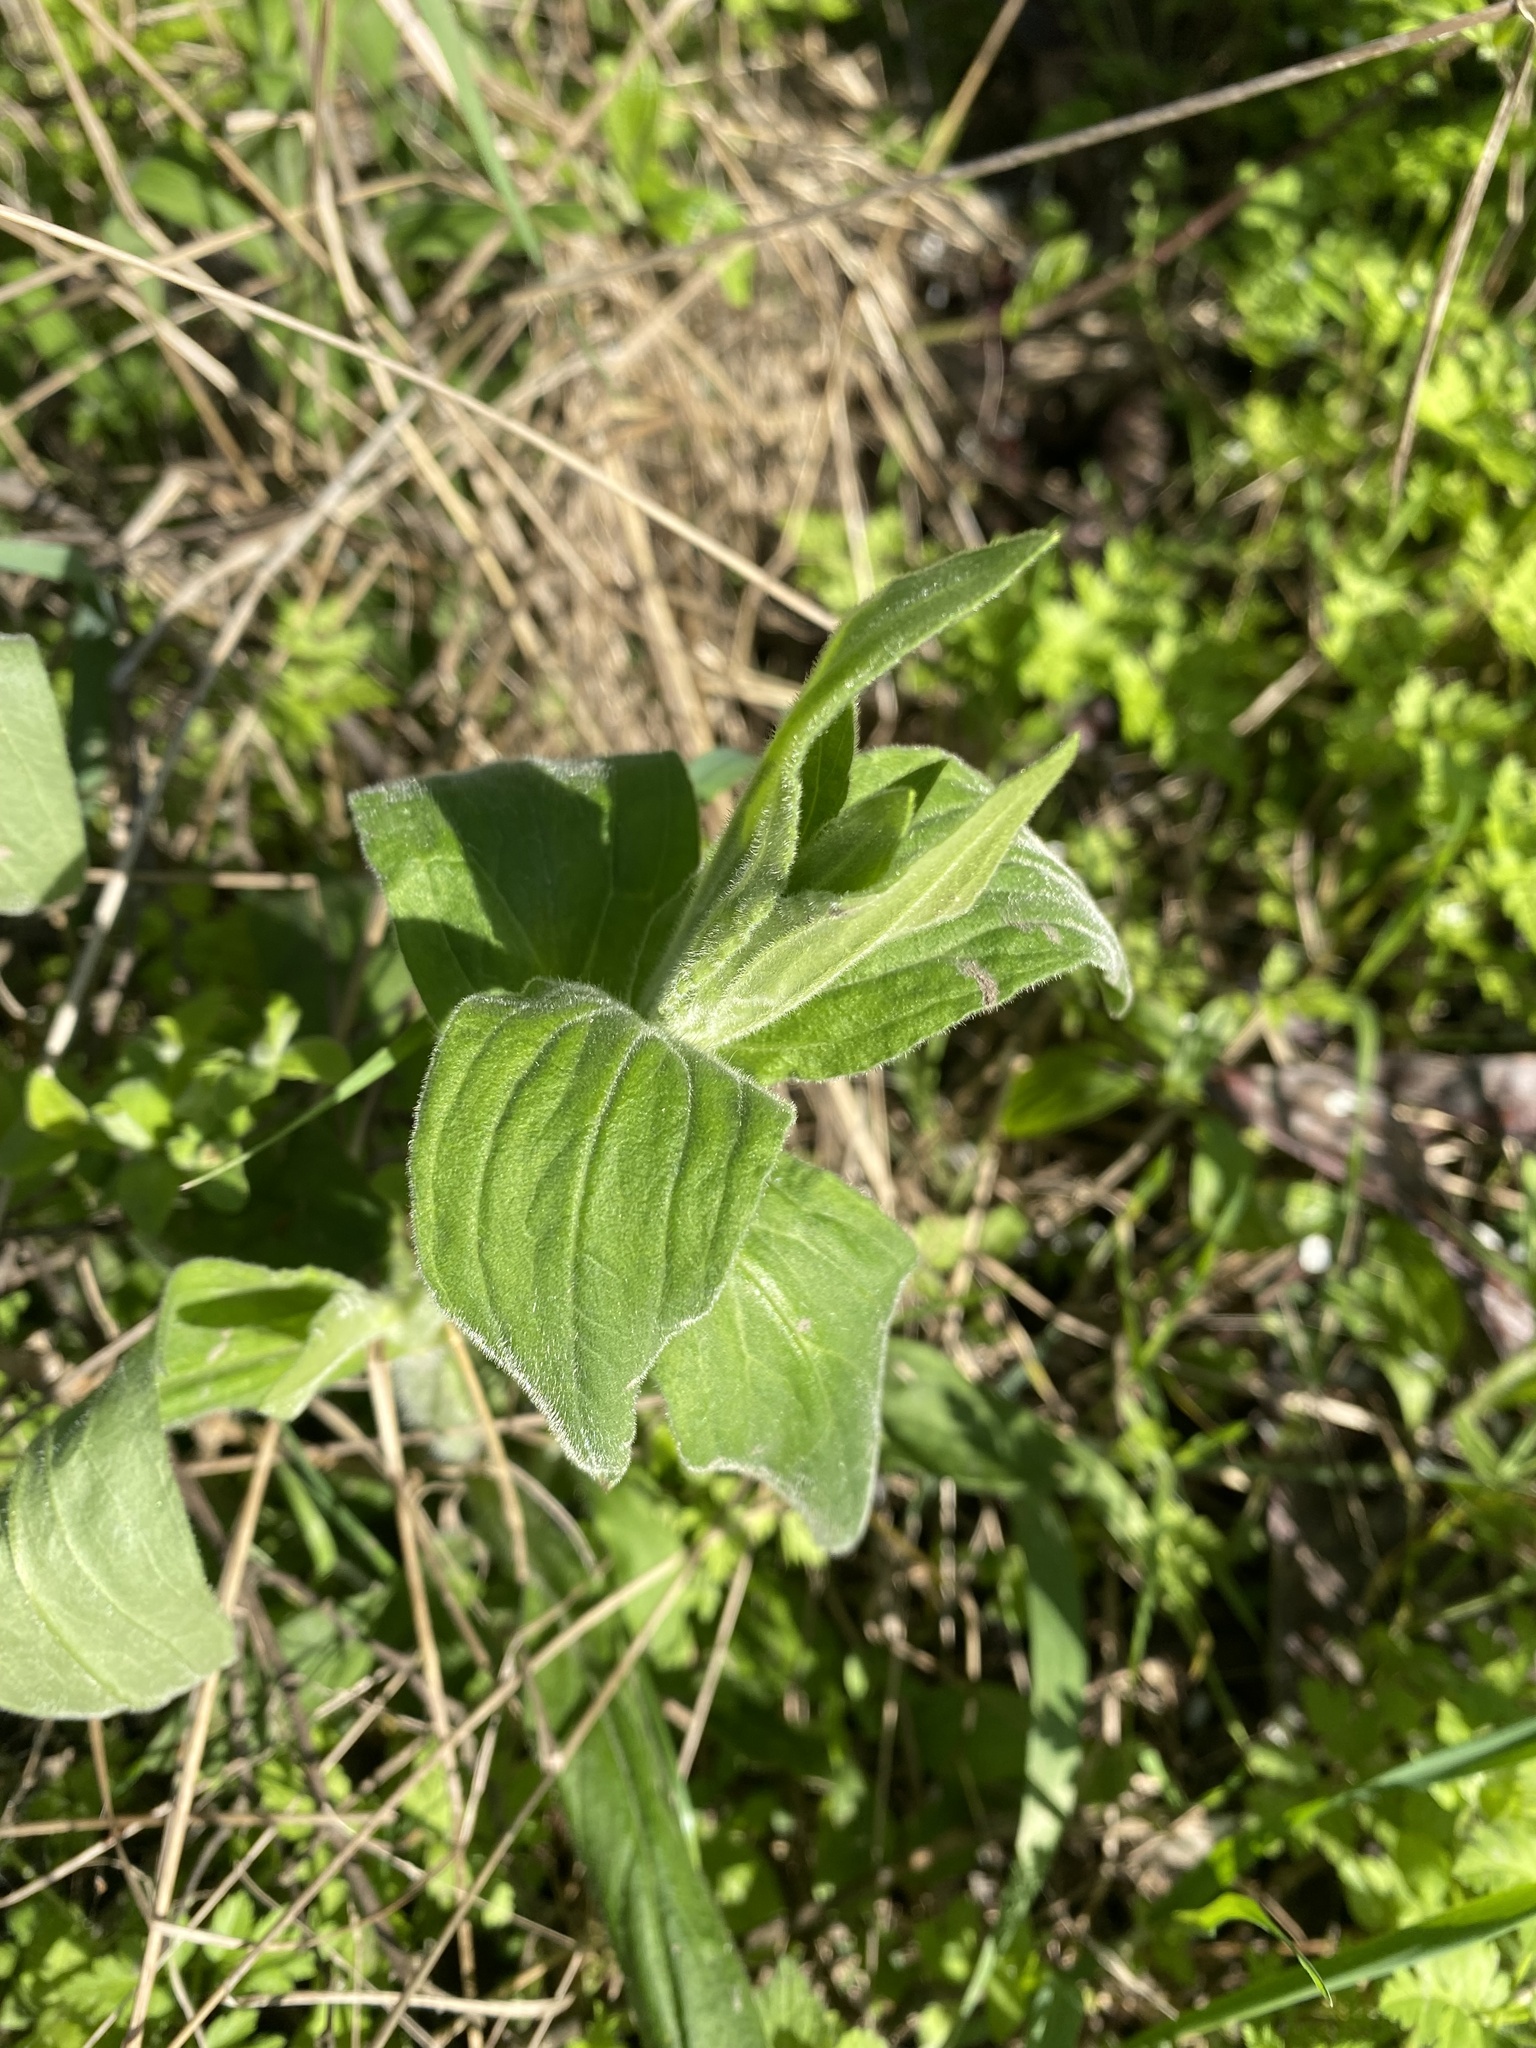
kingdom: Plantae
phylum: Tracheophyta
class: Magnoliopsida
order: Caryophyllales
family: Caryophyllaceae
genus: Silene
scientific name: Silene latifolia
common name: White campion
